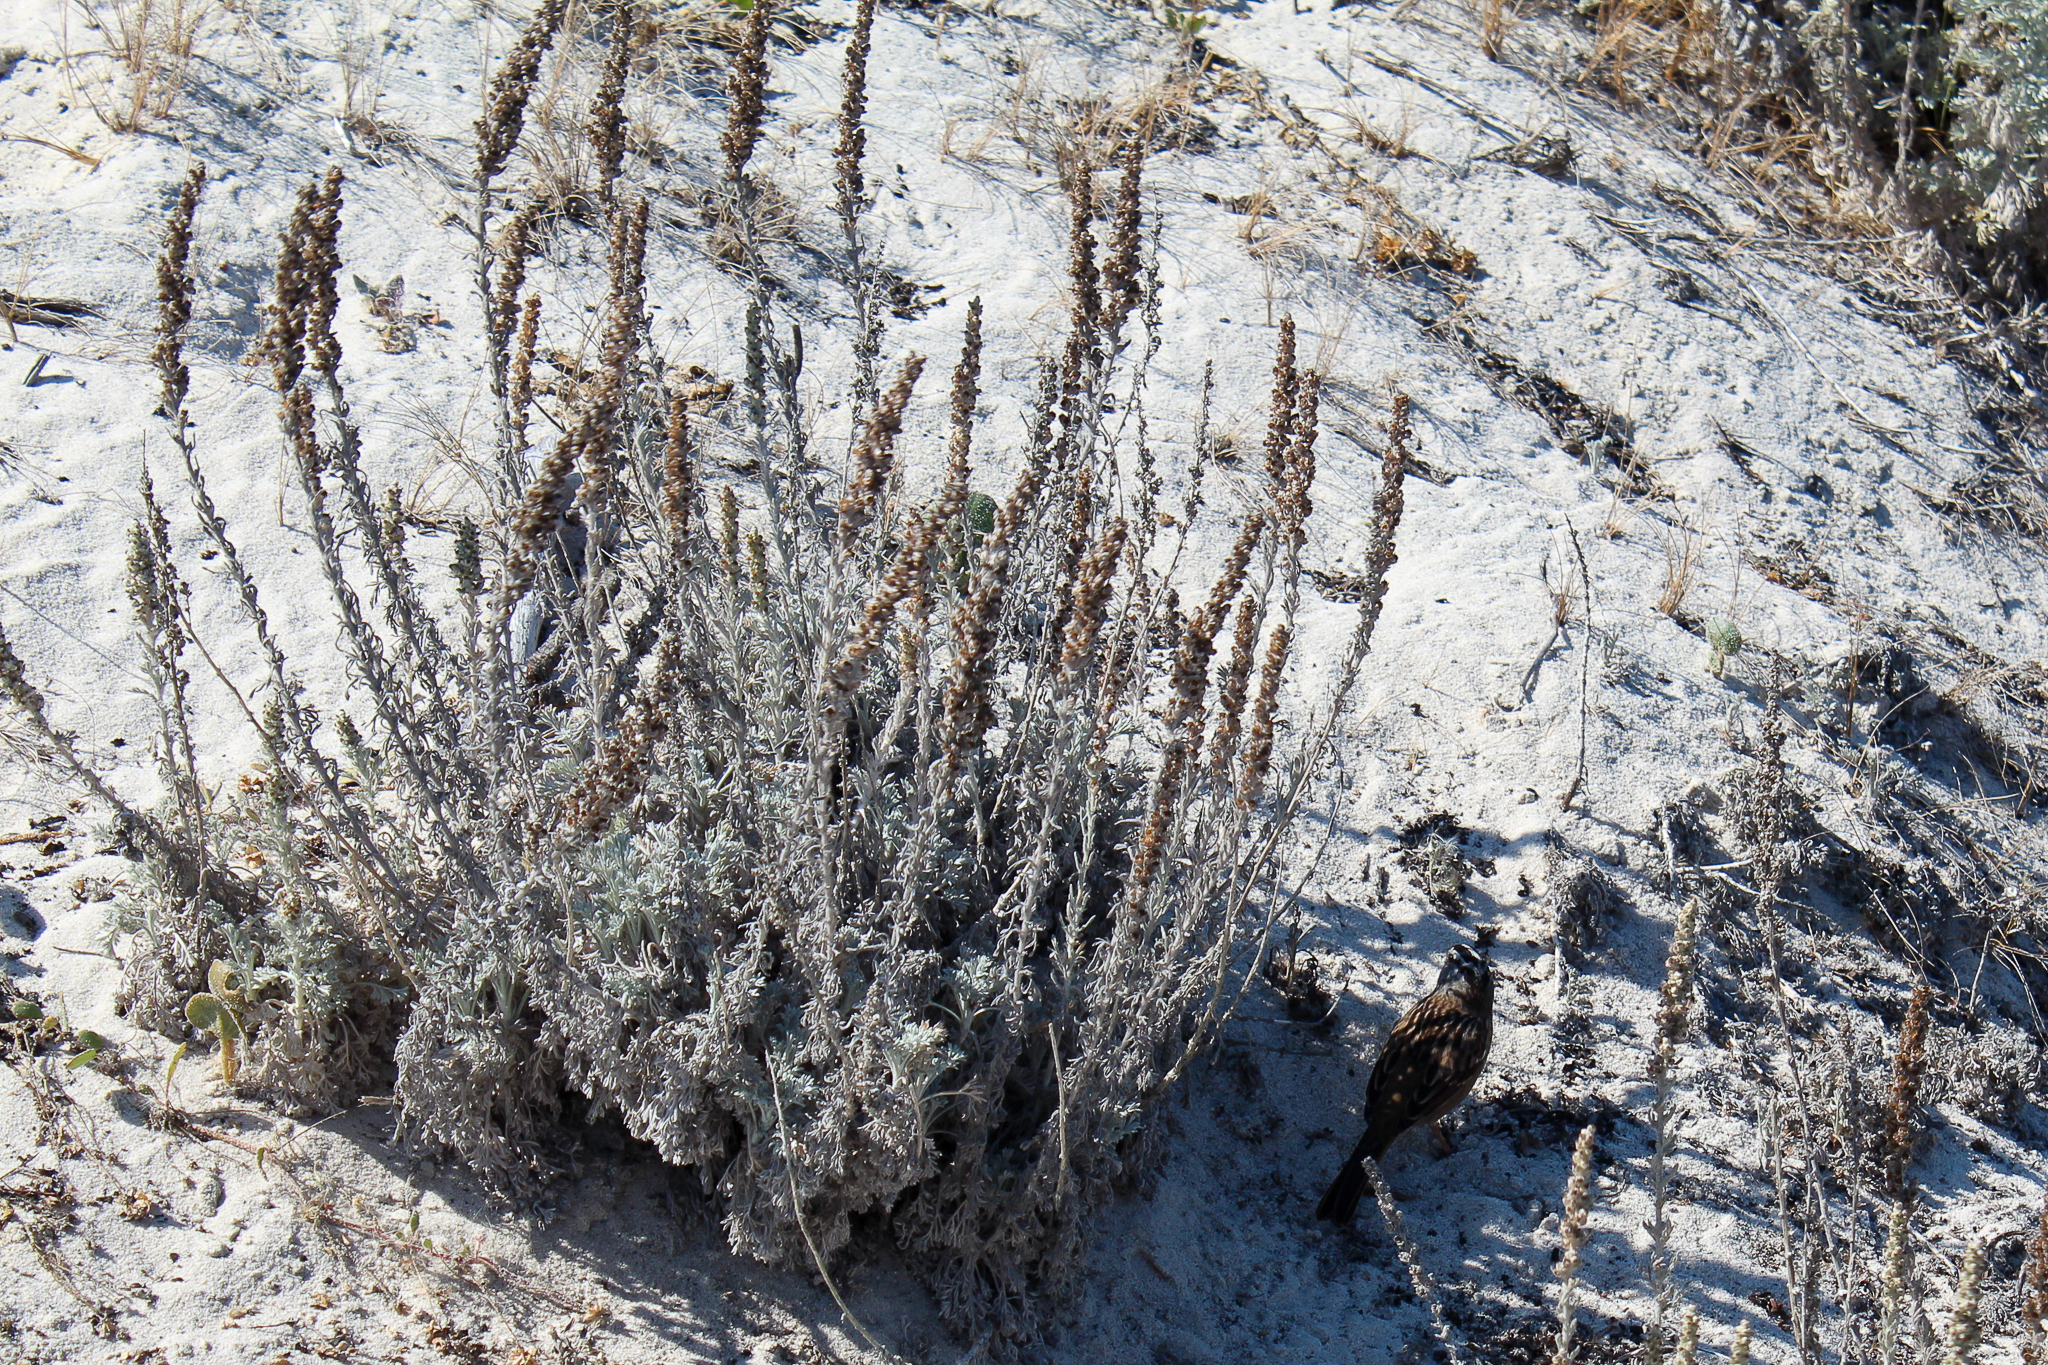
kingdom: Plantae
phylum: Tracheophyta
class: Magnoliopsida
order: Asterales
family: Asteraceae
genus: Artemisia
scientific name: Artemisia pycnocephala
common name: Coastal sagewort
